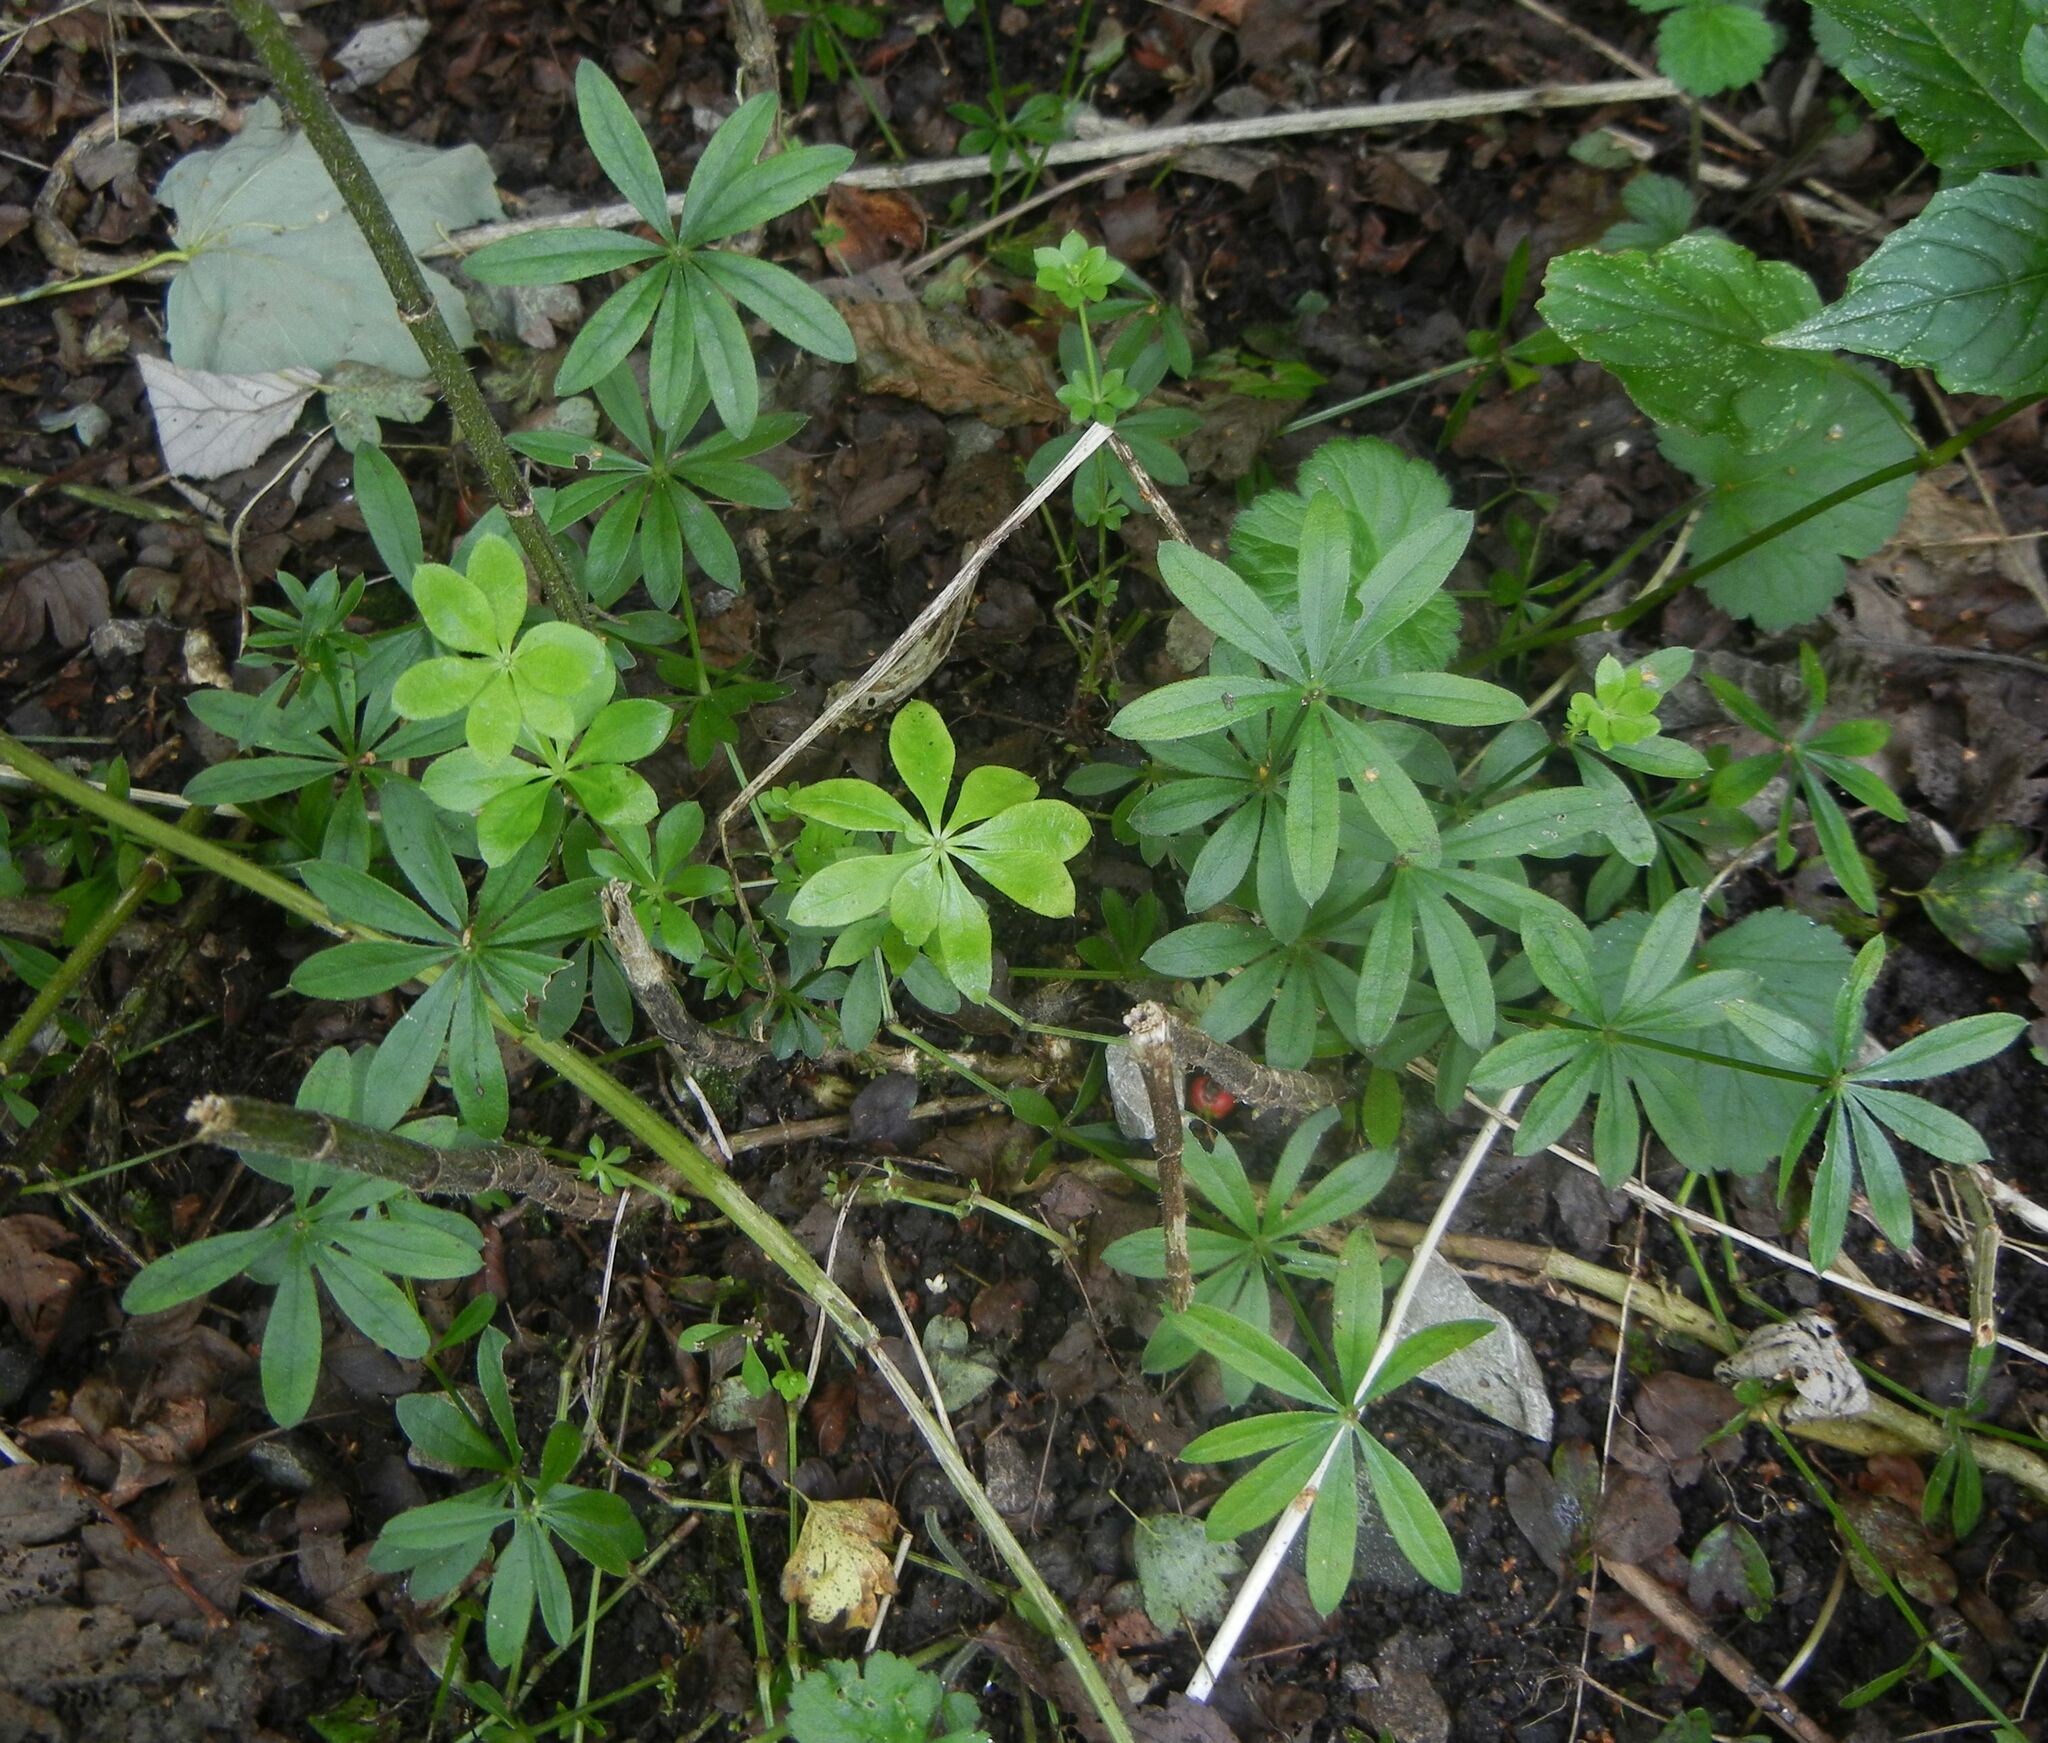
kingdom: Plantae
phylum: Tracheophyta
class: Magnoliopsida
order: Gentianales
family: Rubiaceae
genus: Galium
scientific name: Galium odoratum
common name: Sweet woodruff
